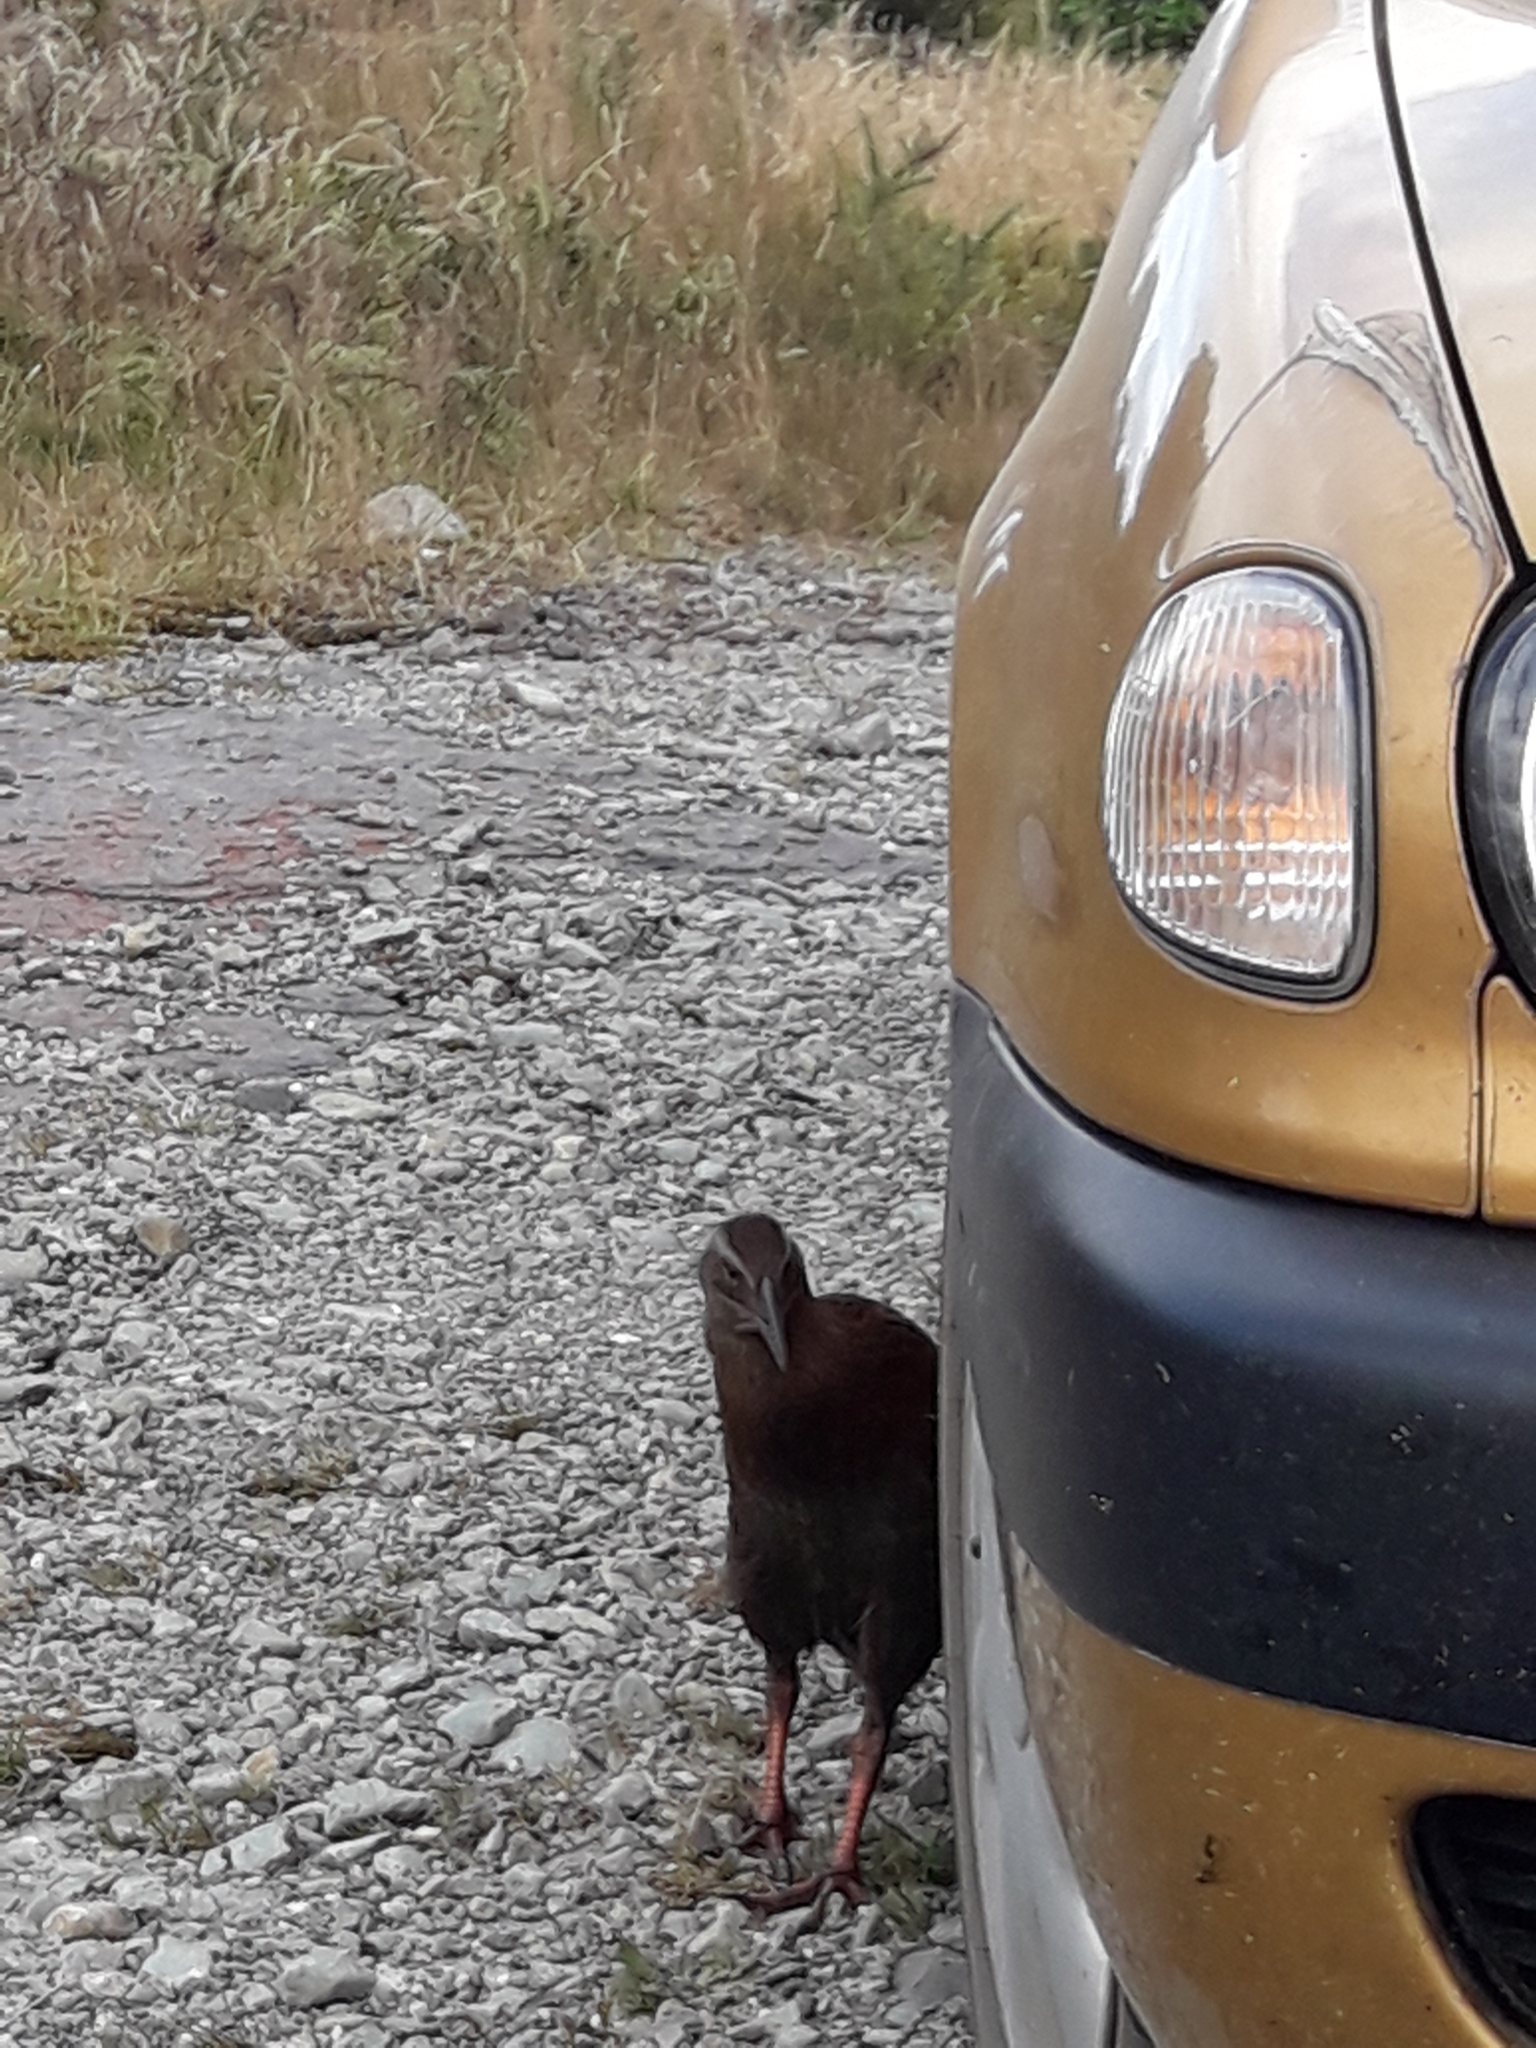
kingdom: Animalia
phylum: Chordata
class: Aves
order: Gruiformes
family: Rallidae
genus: Gallirallus
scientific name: Gallirallus australis
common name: Weka
